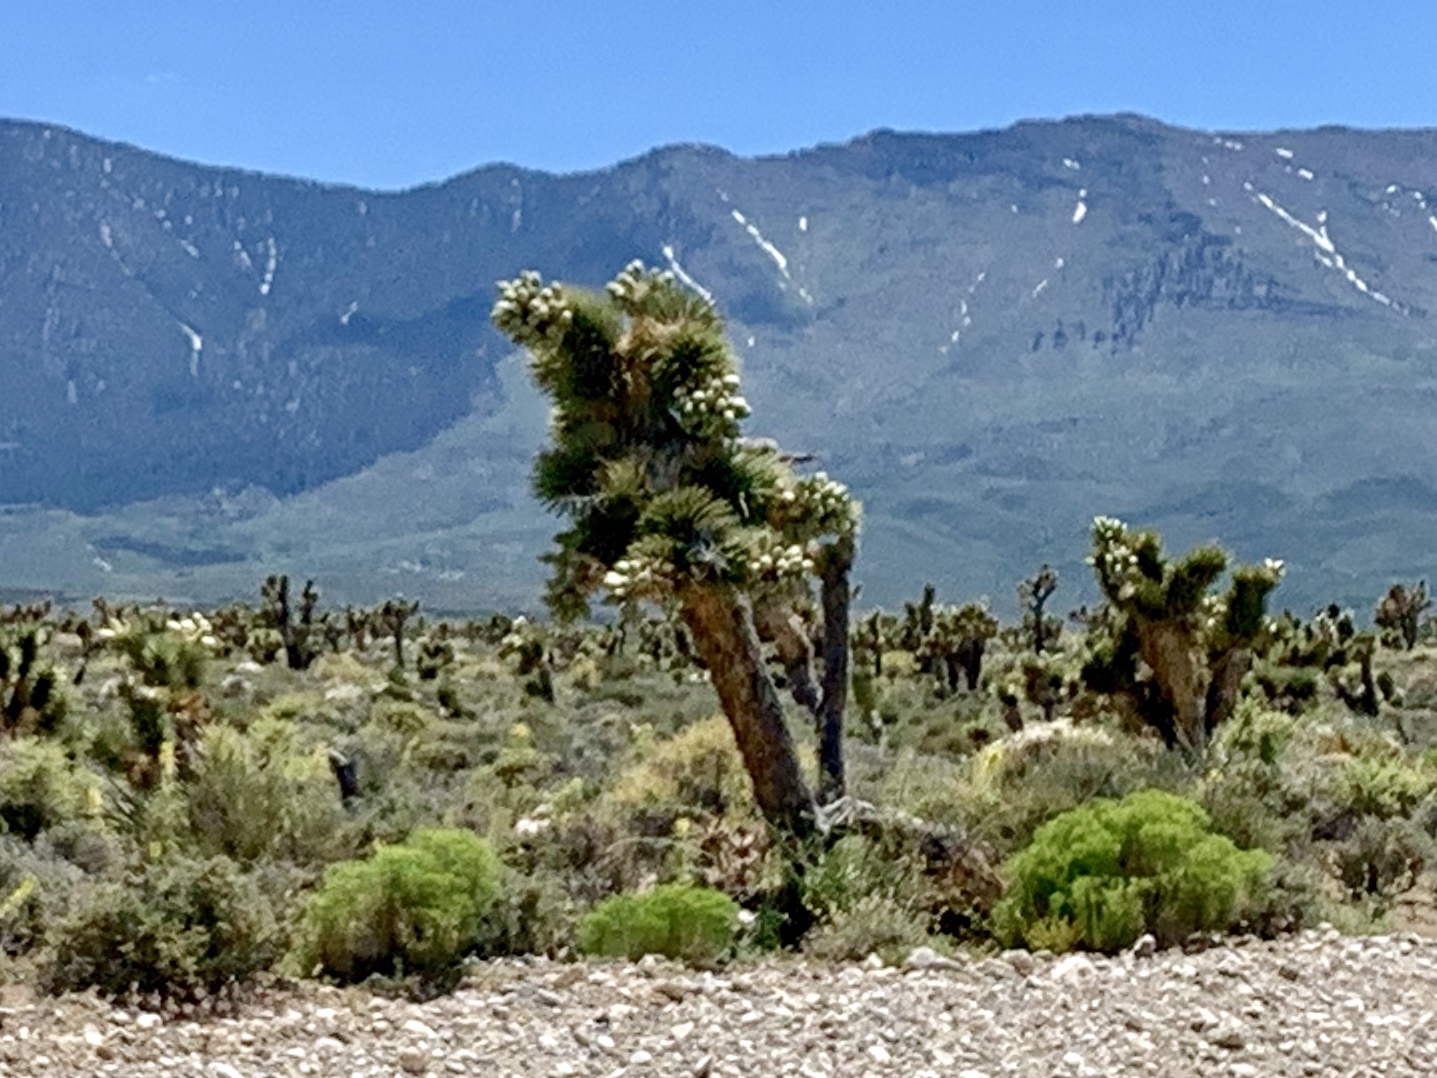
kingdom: Plantae
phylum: Tracheophyta
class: Liliopsida
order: Asparagales
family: Asparagaceae
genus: Yucca
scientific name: Yucca brevifolia
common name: Joshua tree
